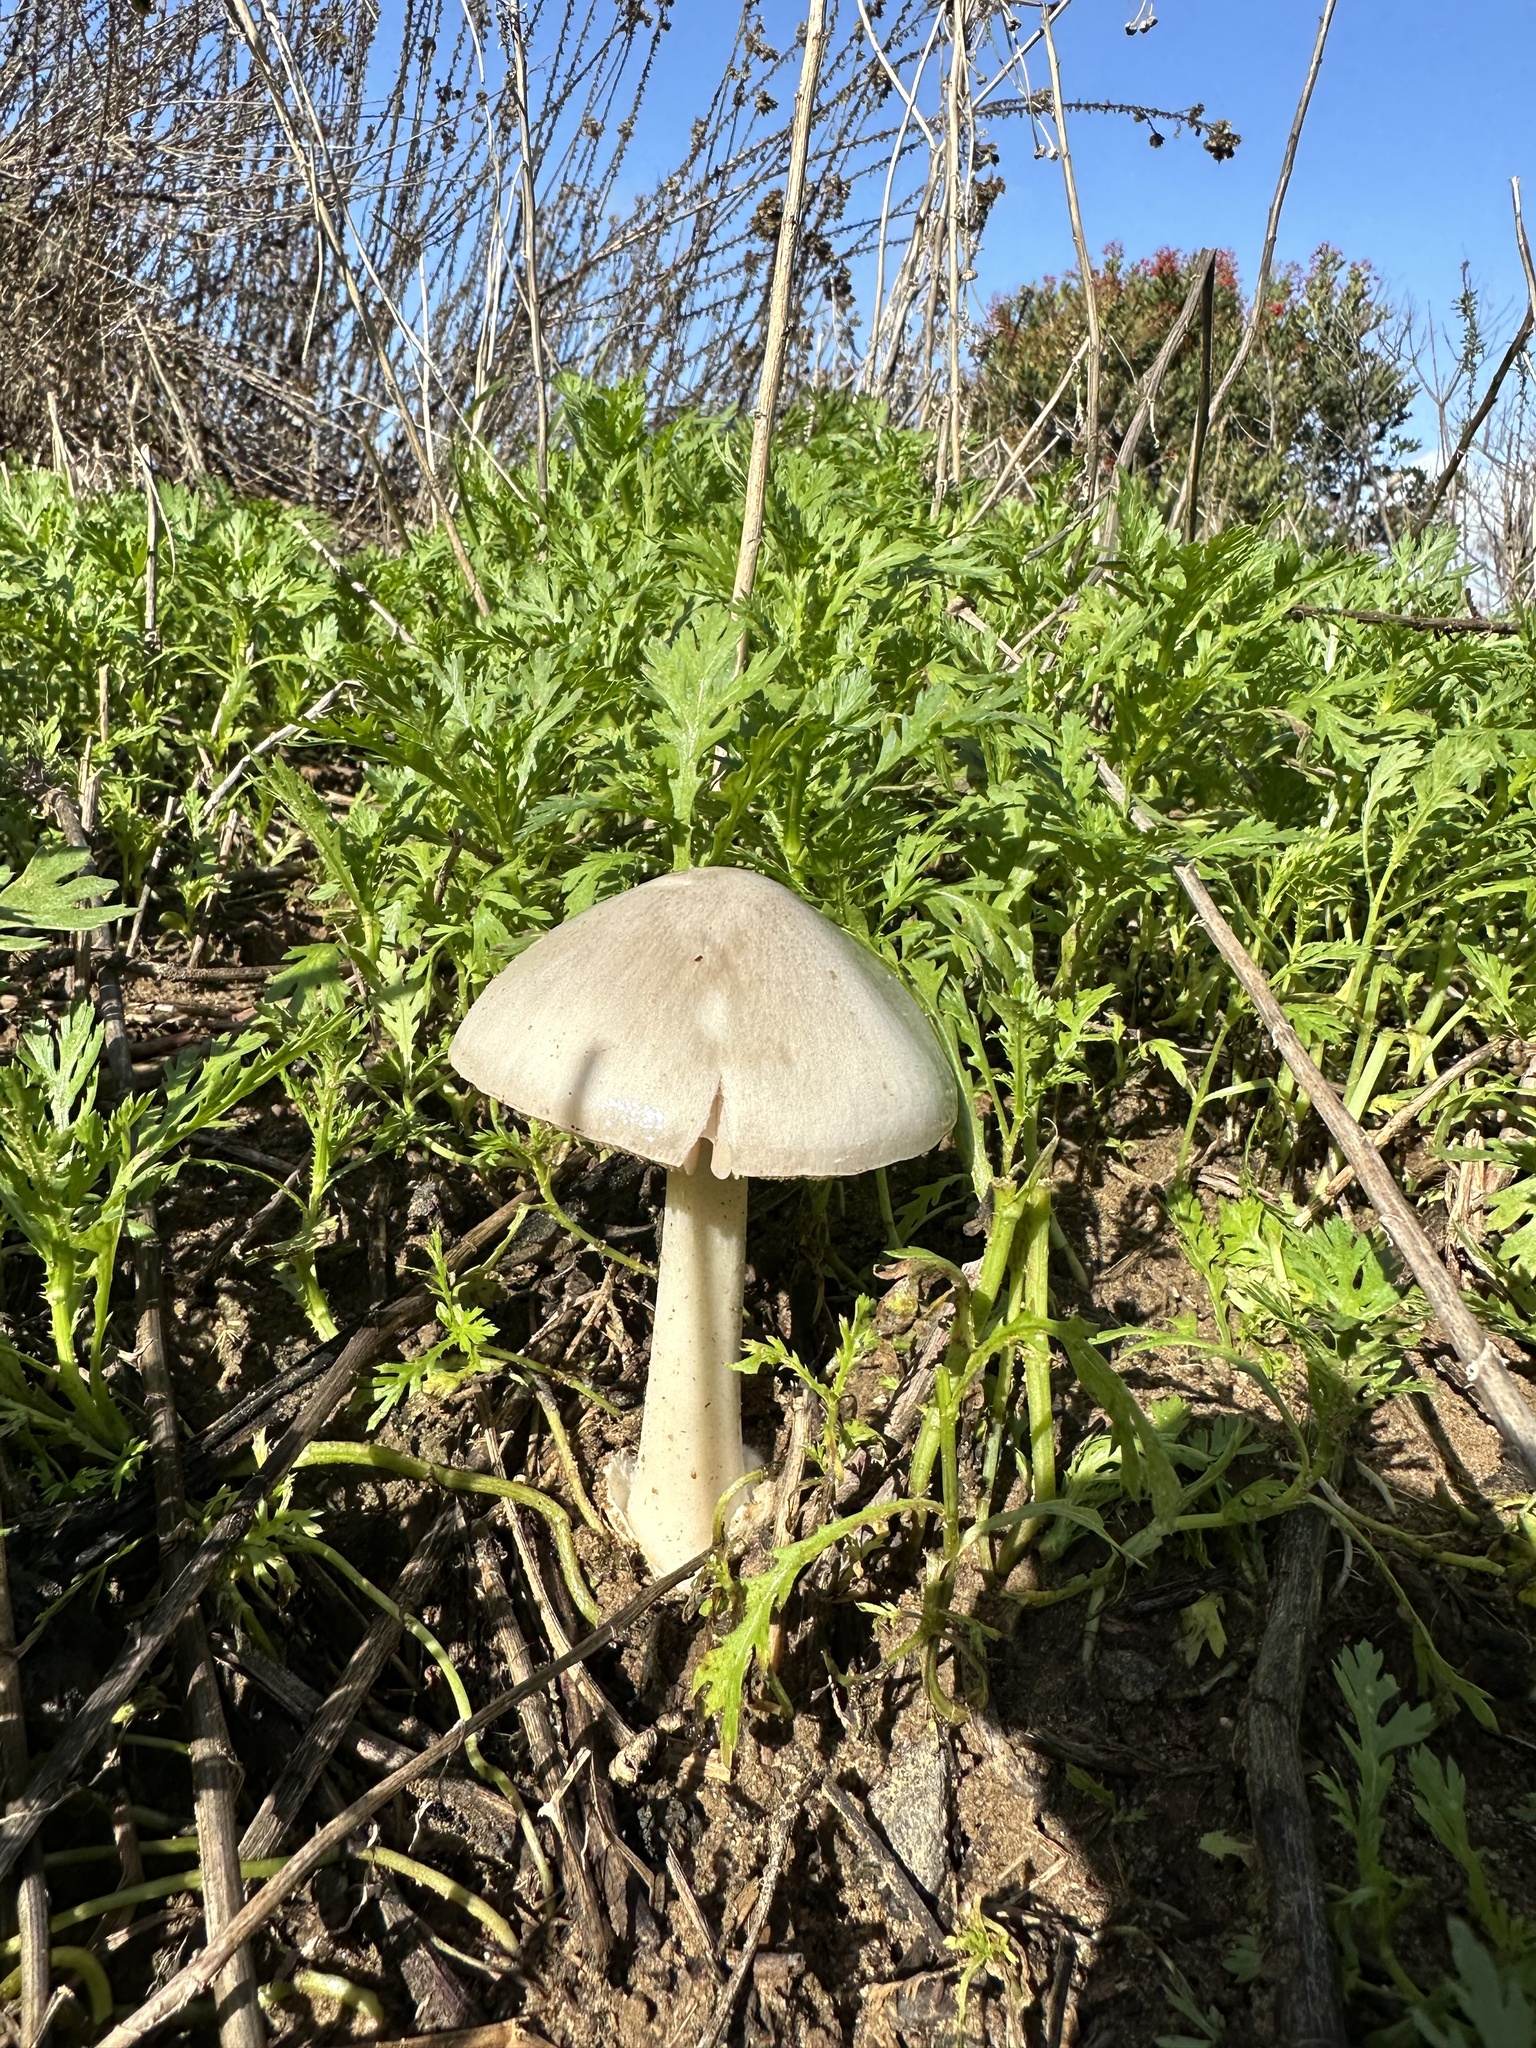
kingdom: Fungi
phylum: Basidiomycota
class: Agaricomycetes
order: Agaricales
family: Pluteaceae
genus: Volvopluteus
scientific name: Volvopluteus gloiocephalus
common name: Stubble rosegill
